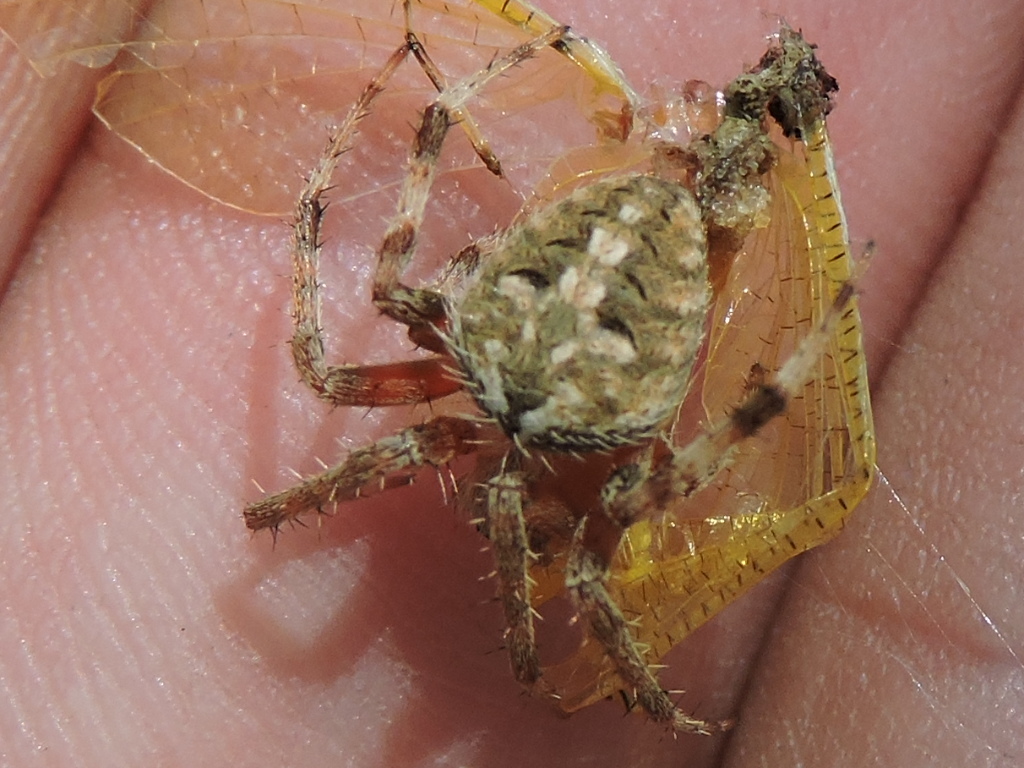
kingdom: Animalia
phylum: Arthropoda
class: Arachnida
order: Araneae
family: Araneidae
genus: Neoscona
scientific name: Neoscona crucifera
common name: Spotted orbweaver
